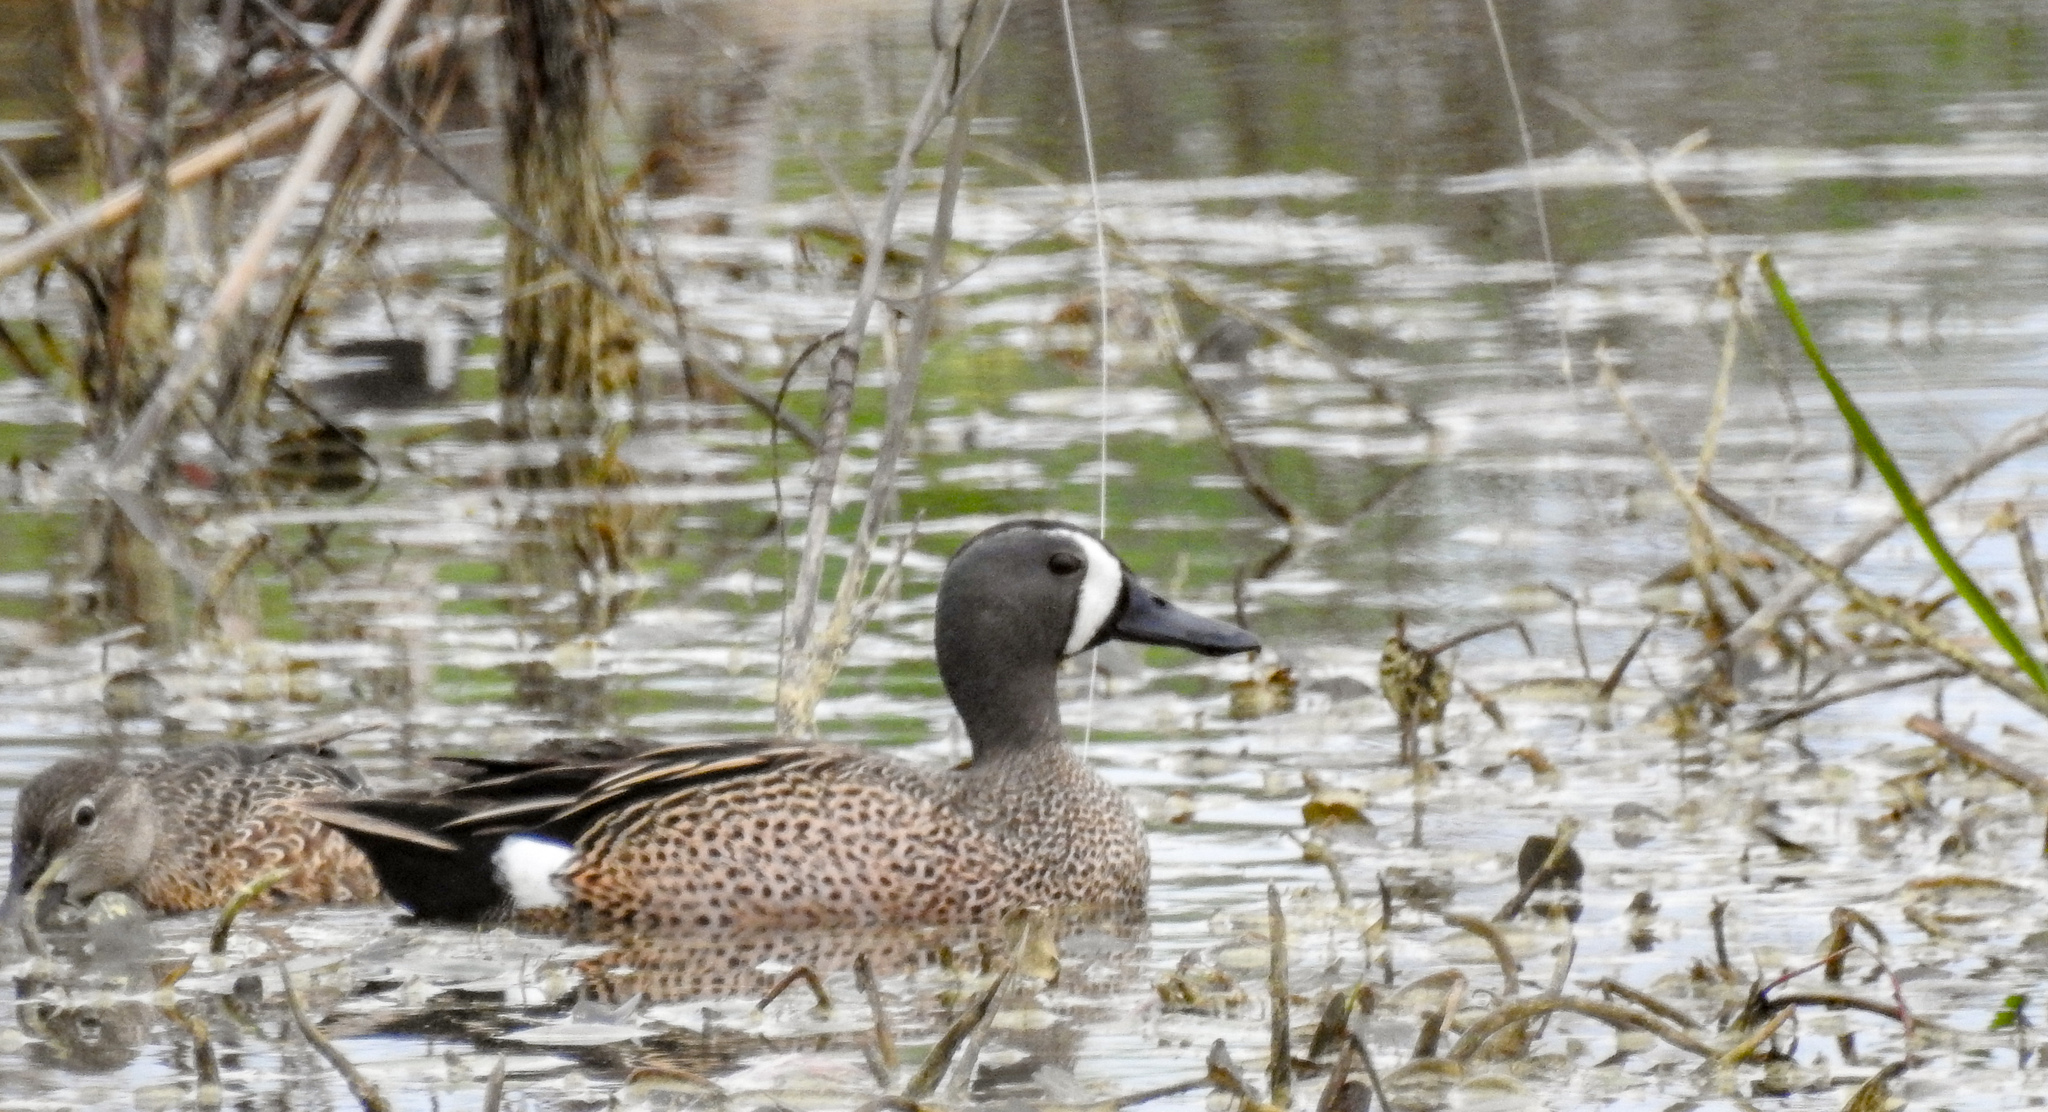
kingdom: Animalia
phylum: Chordata
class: Aves
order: Anseriformes
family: Anatidae
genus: Spatula
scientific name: Spatula discors
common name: Blue-winged teal
